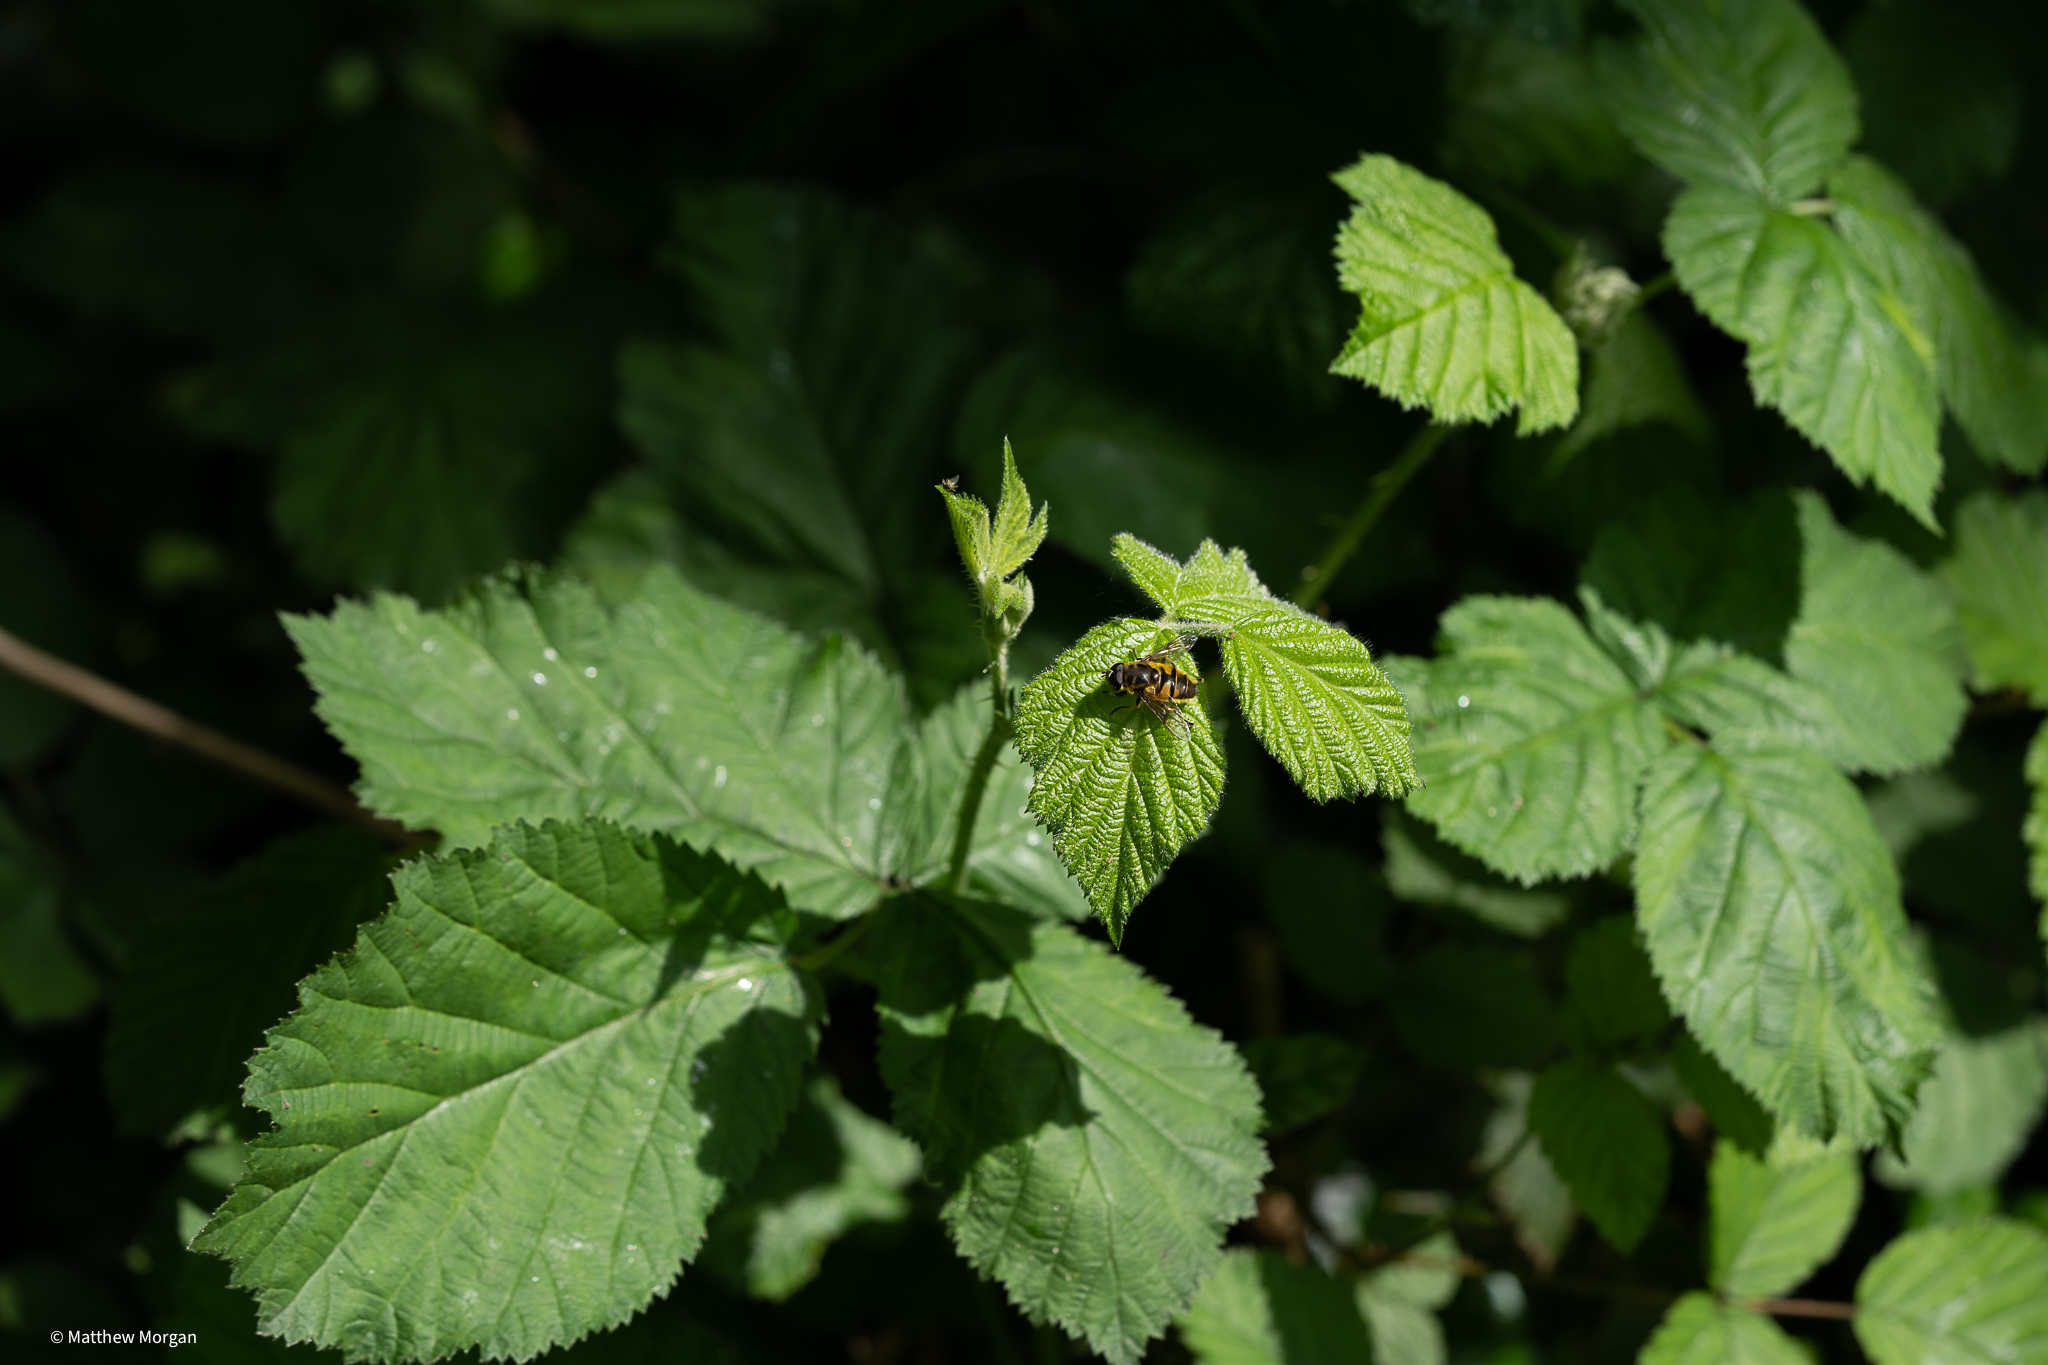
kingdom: Animalia
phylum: Arthropoda
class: Insecta
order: Diptera
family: Syrphidae
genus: Myathropa
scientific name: Myathropa florea
